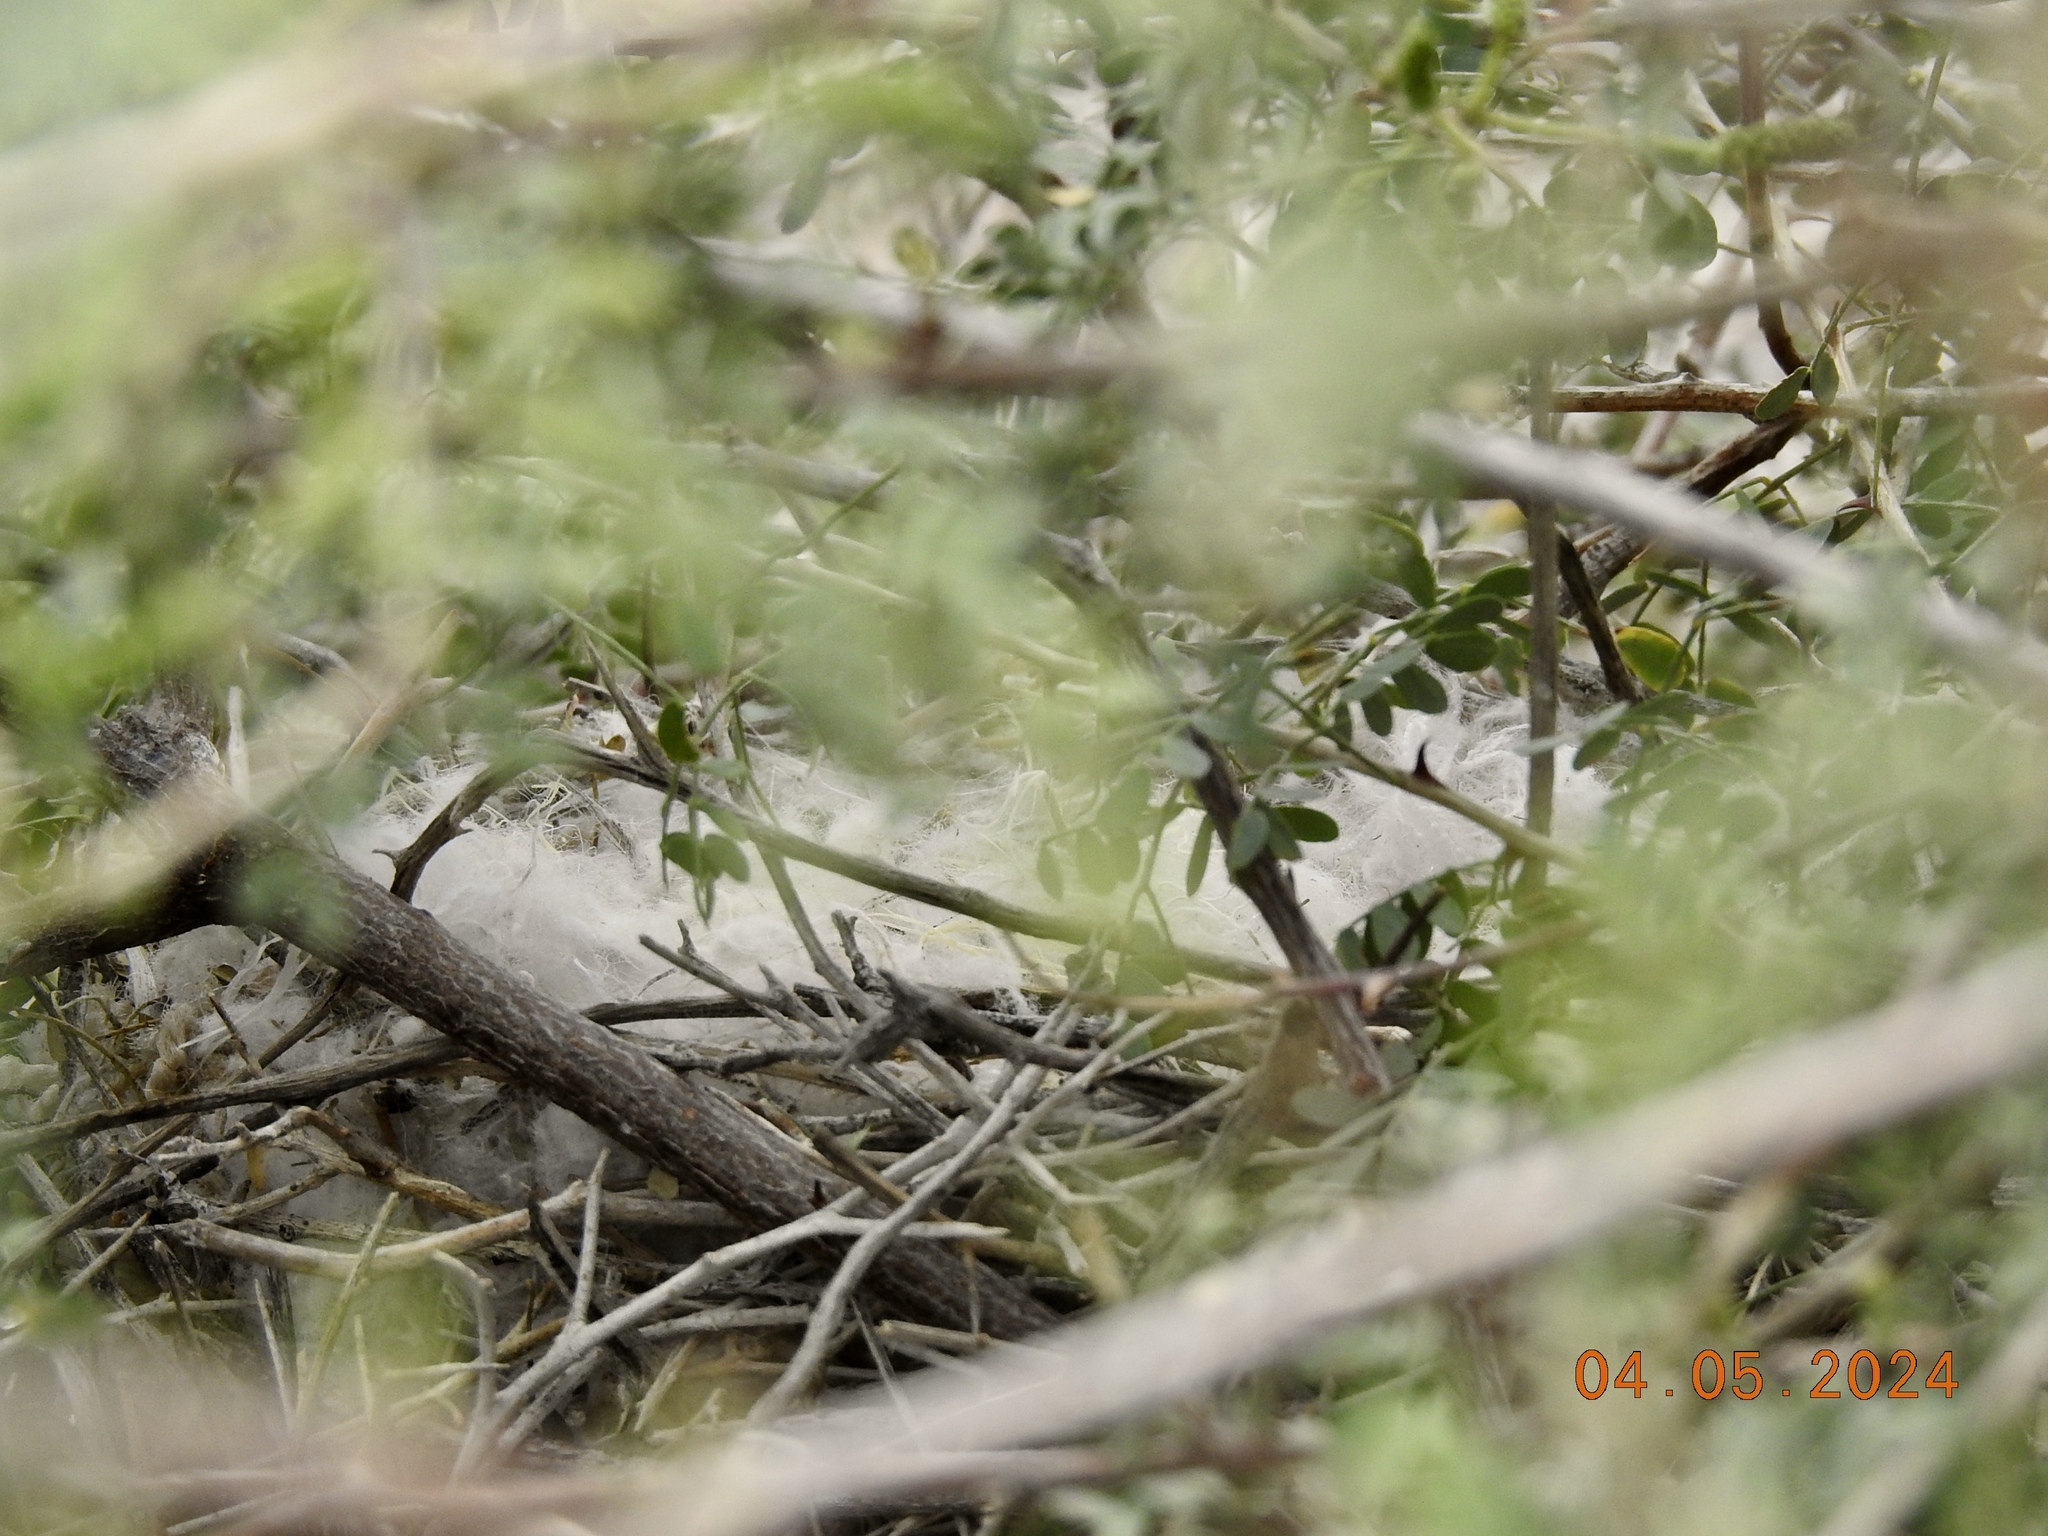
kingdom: Animalia
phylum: Chordata
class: Aves
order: Passeriformes
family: Laniidae
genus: Lanius
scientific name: Lanius ludovicianus
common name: Loggerhead shrike
